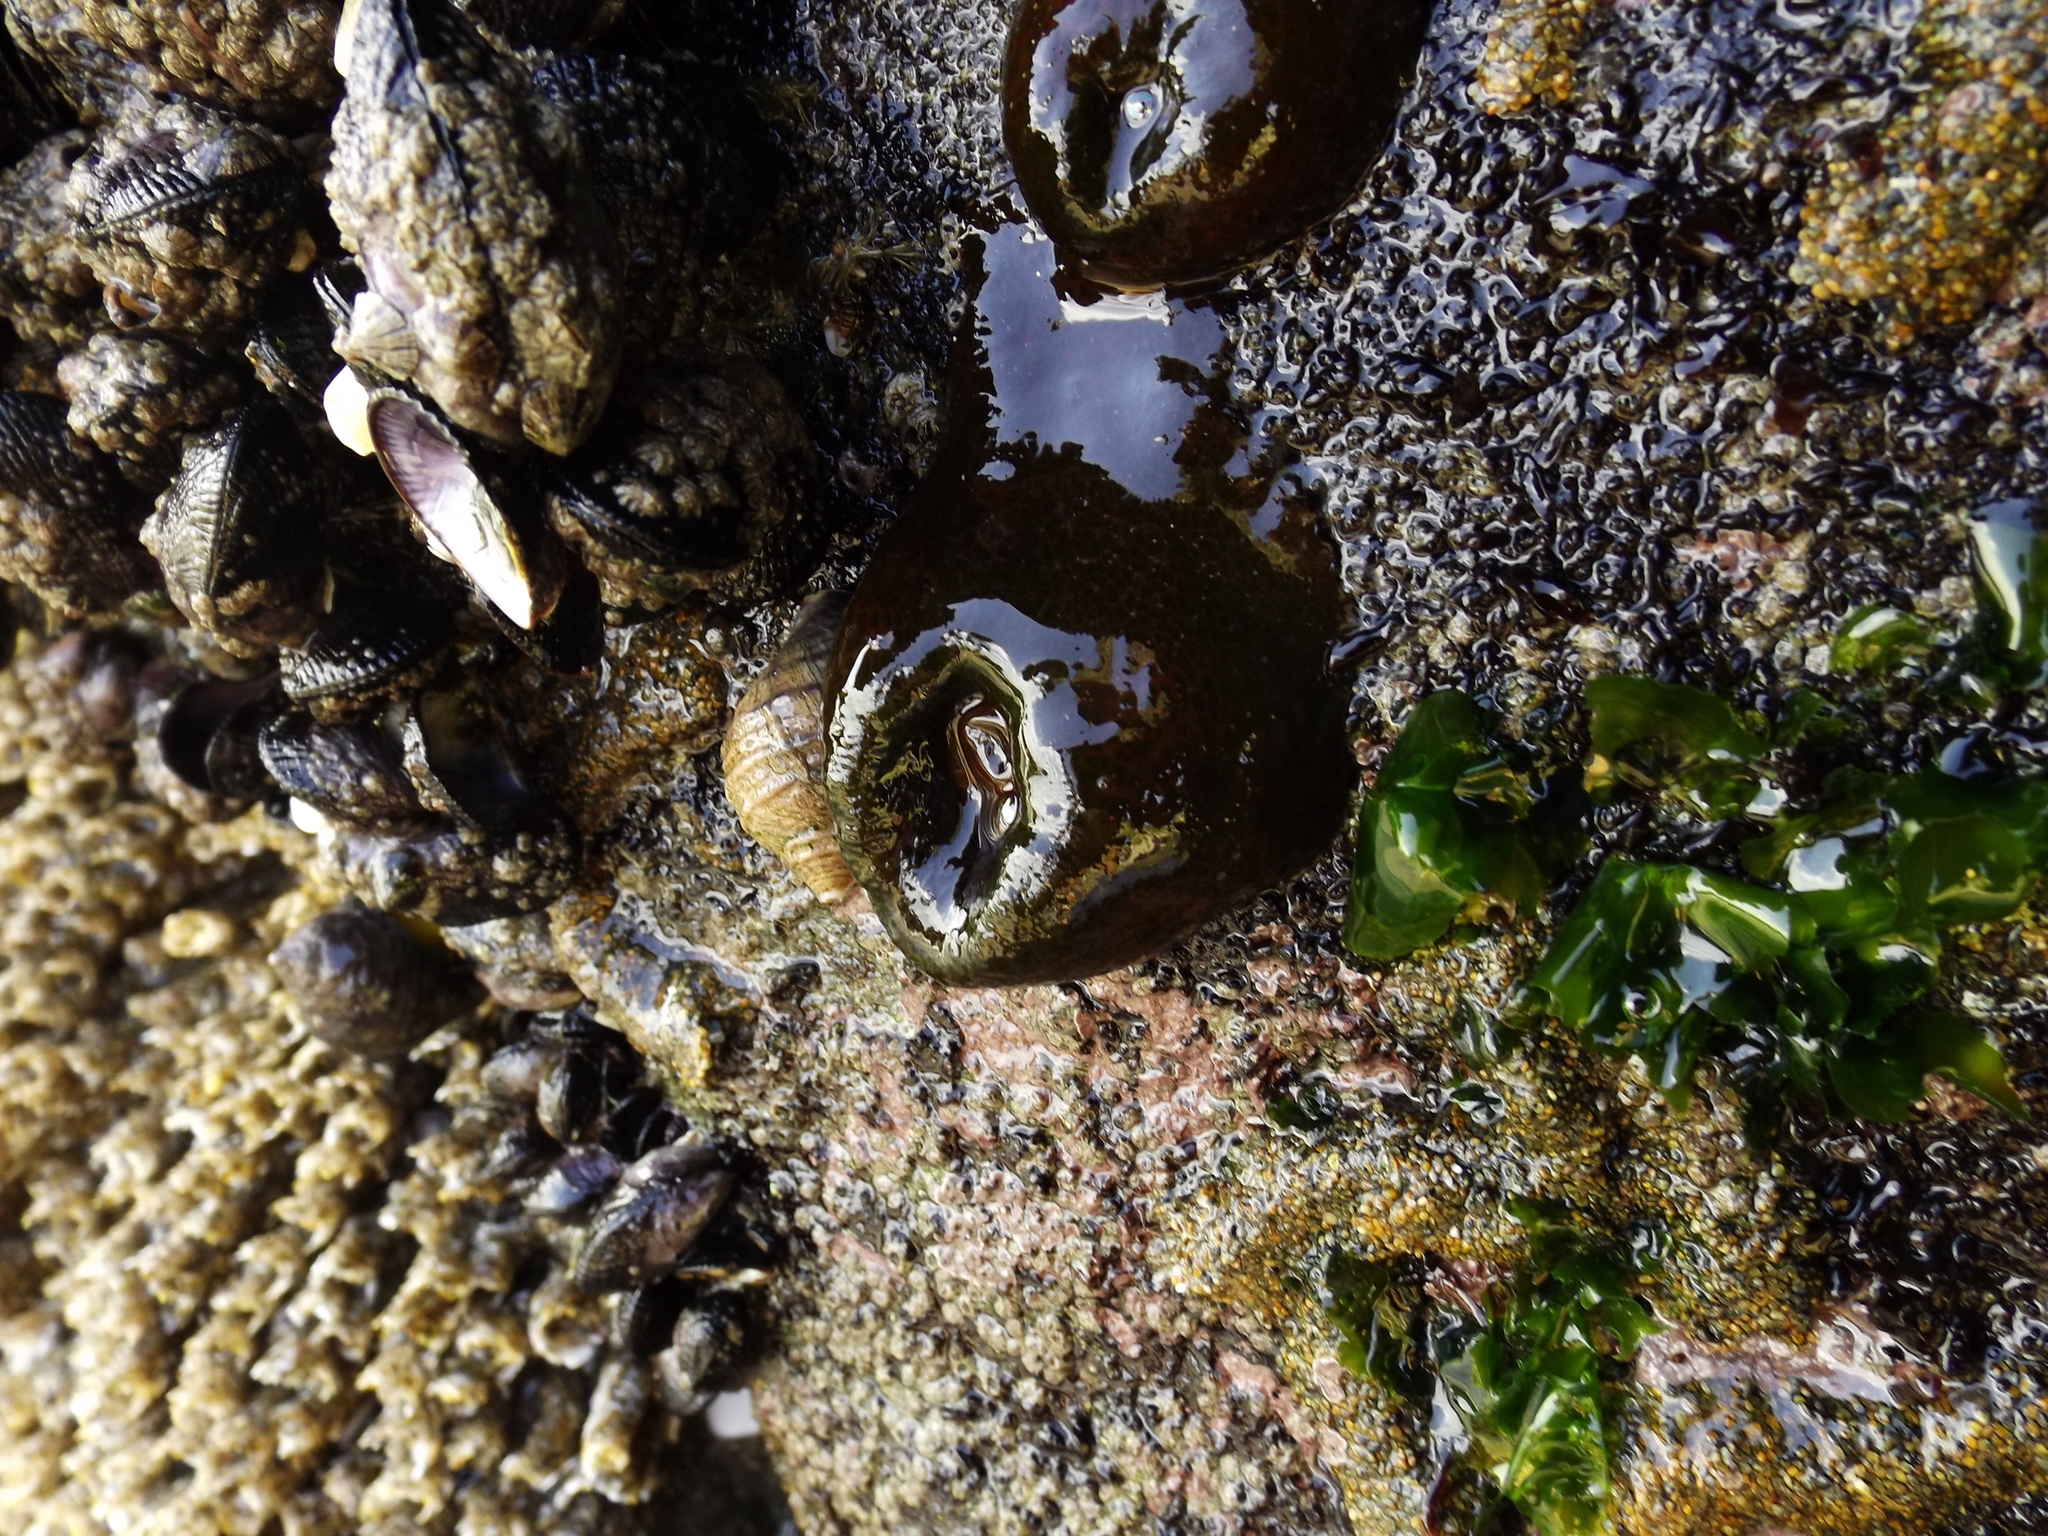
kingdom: Animalia
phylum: Cnidaria
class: Anthozoa
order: Actiniaria
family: Actiniidae
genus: Phymactis
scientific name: Phymactis papillosa
